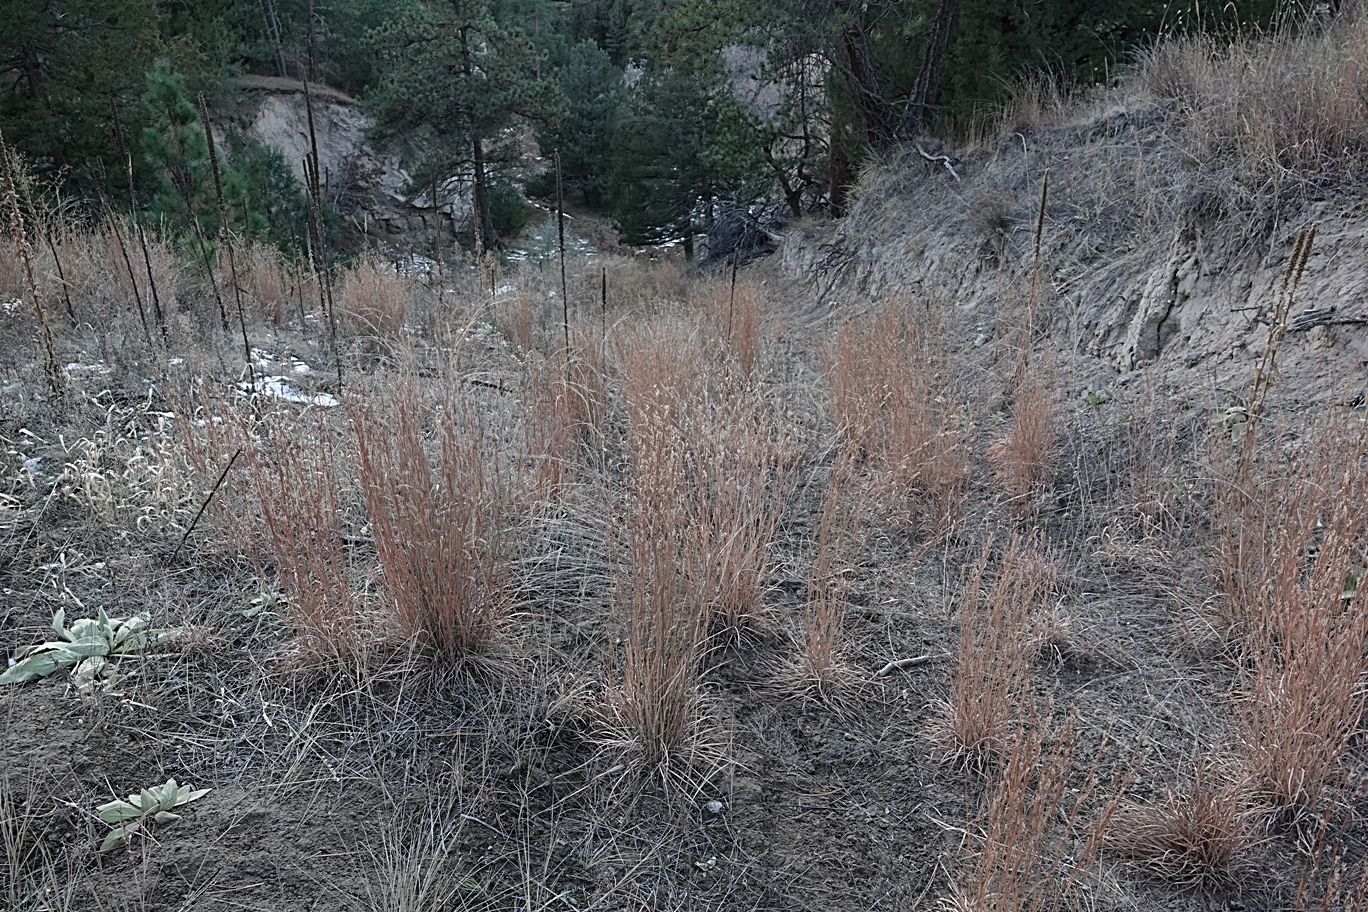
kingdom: Plantae
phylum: Tracheophyta
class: Liliopsida
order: Poales
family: Poaceae
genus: Schizachyrium
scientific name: Schizachyrium scoparium
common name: Little bluestem
